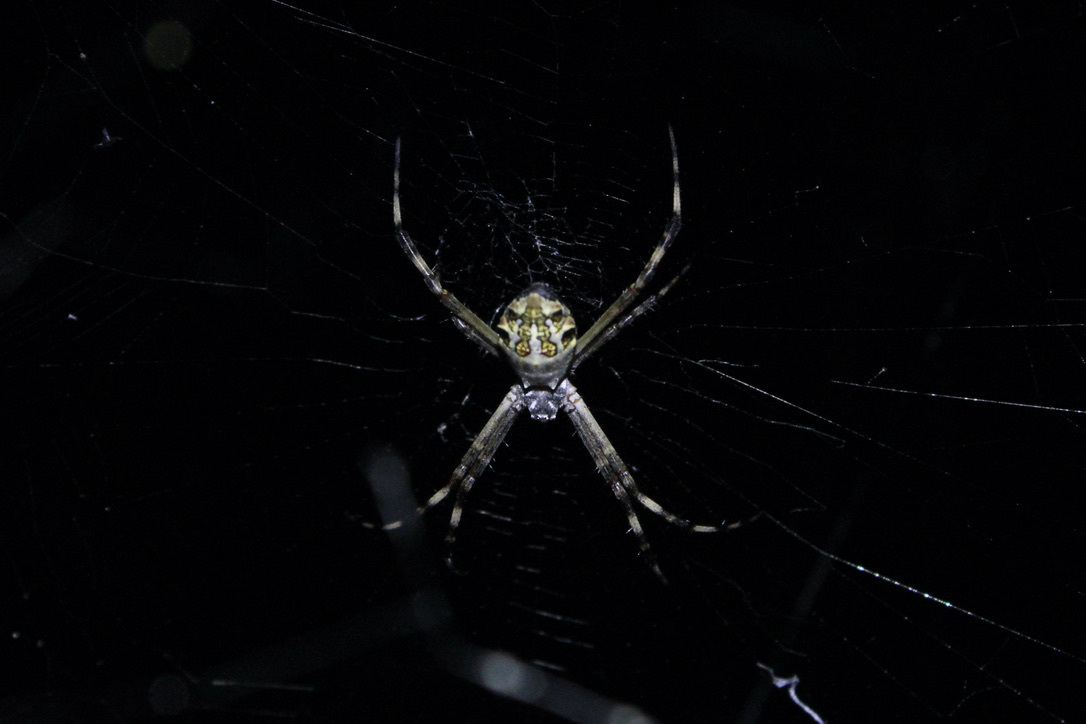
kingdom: Animalia
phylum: Arthropoda
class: Arachnida
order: Araneae
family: Araneidae
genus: Argiope
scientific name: Argiope argentata
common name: Orb weavers
